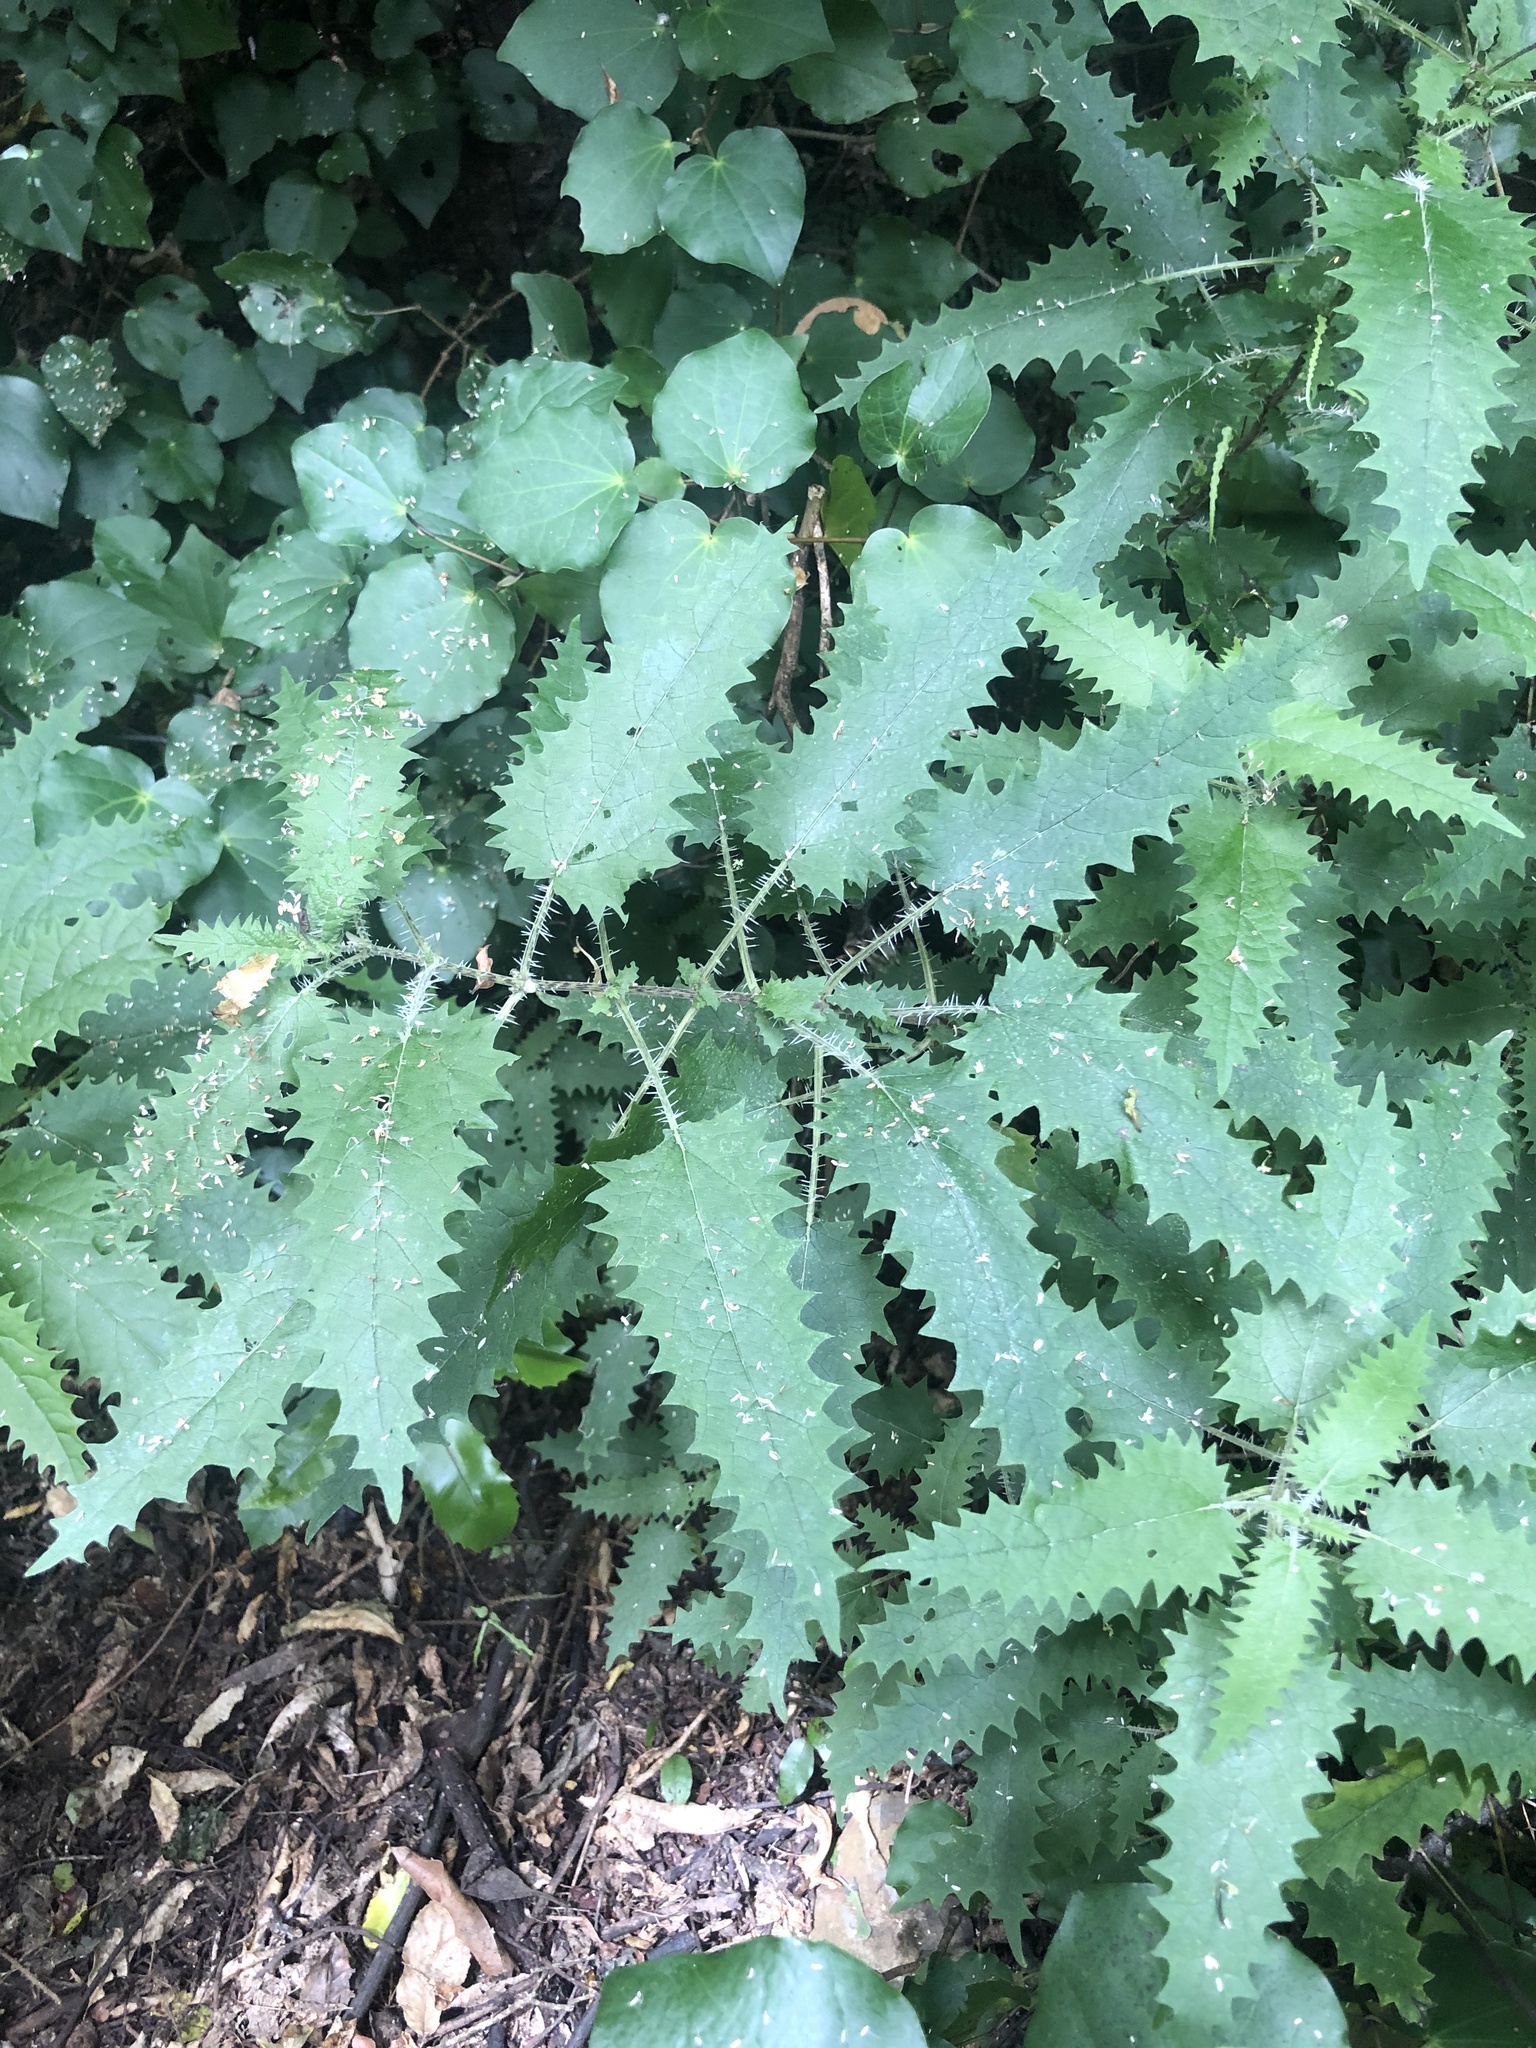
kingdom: Plantae
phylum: Tracheophyta
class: Magnoliopsida
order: Rosales
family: Urticaceae
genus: Urtica
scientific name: Urtica ferox
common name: Tree nettle
